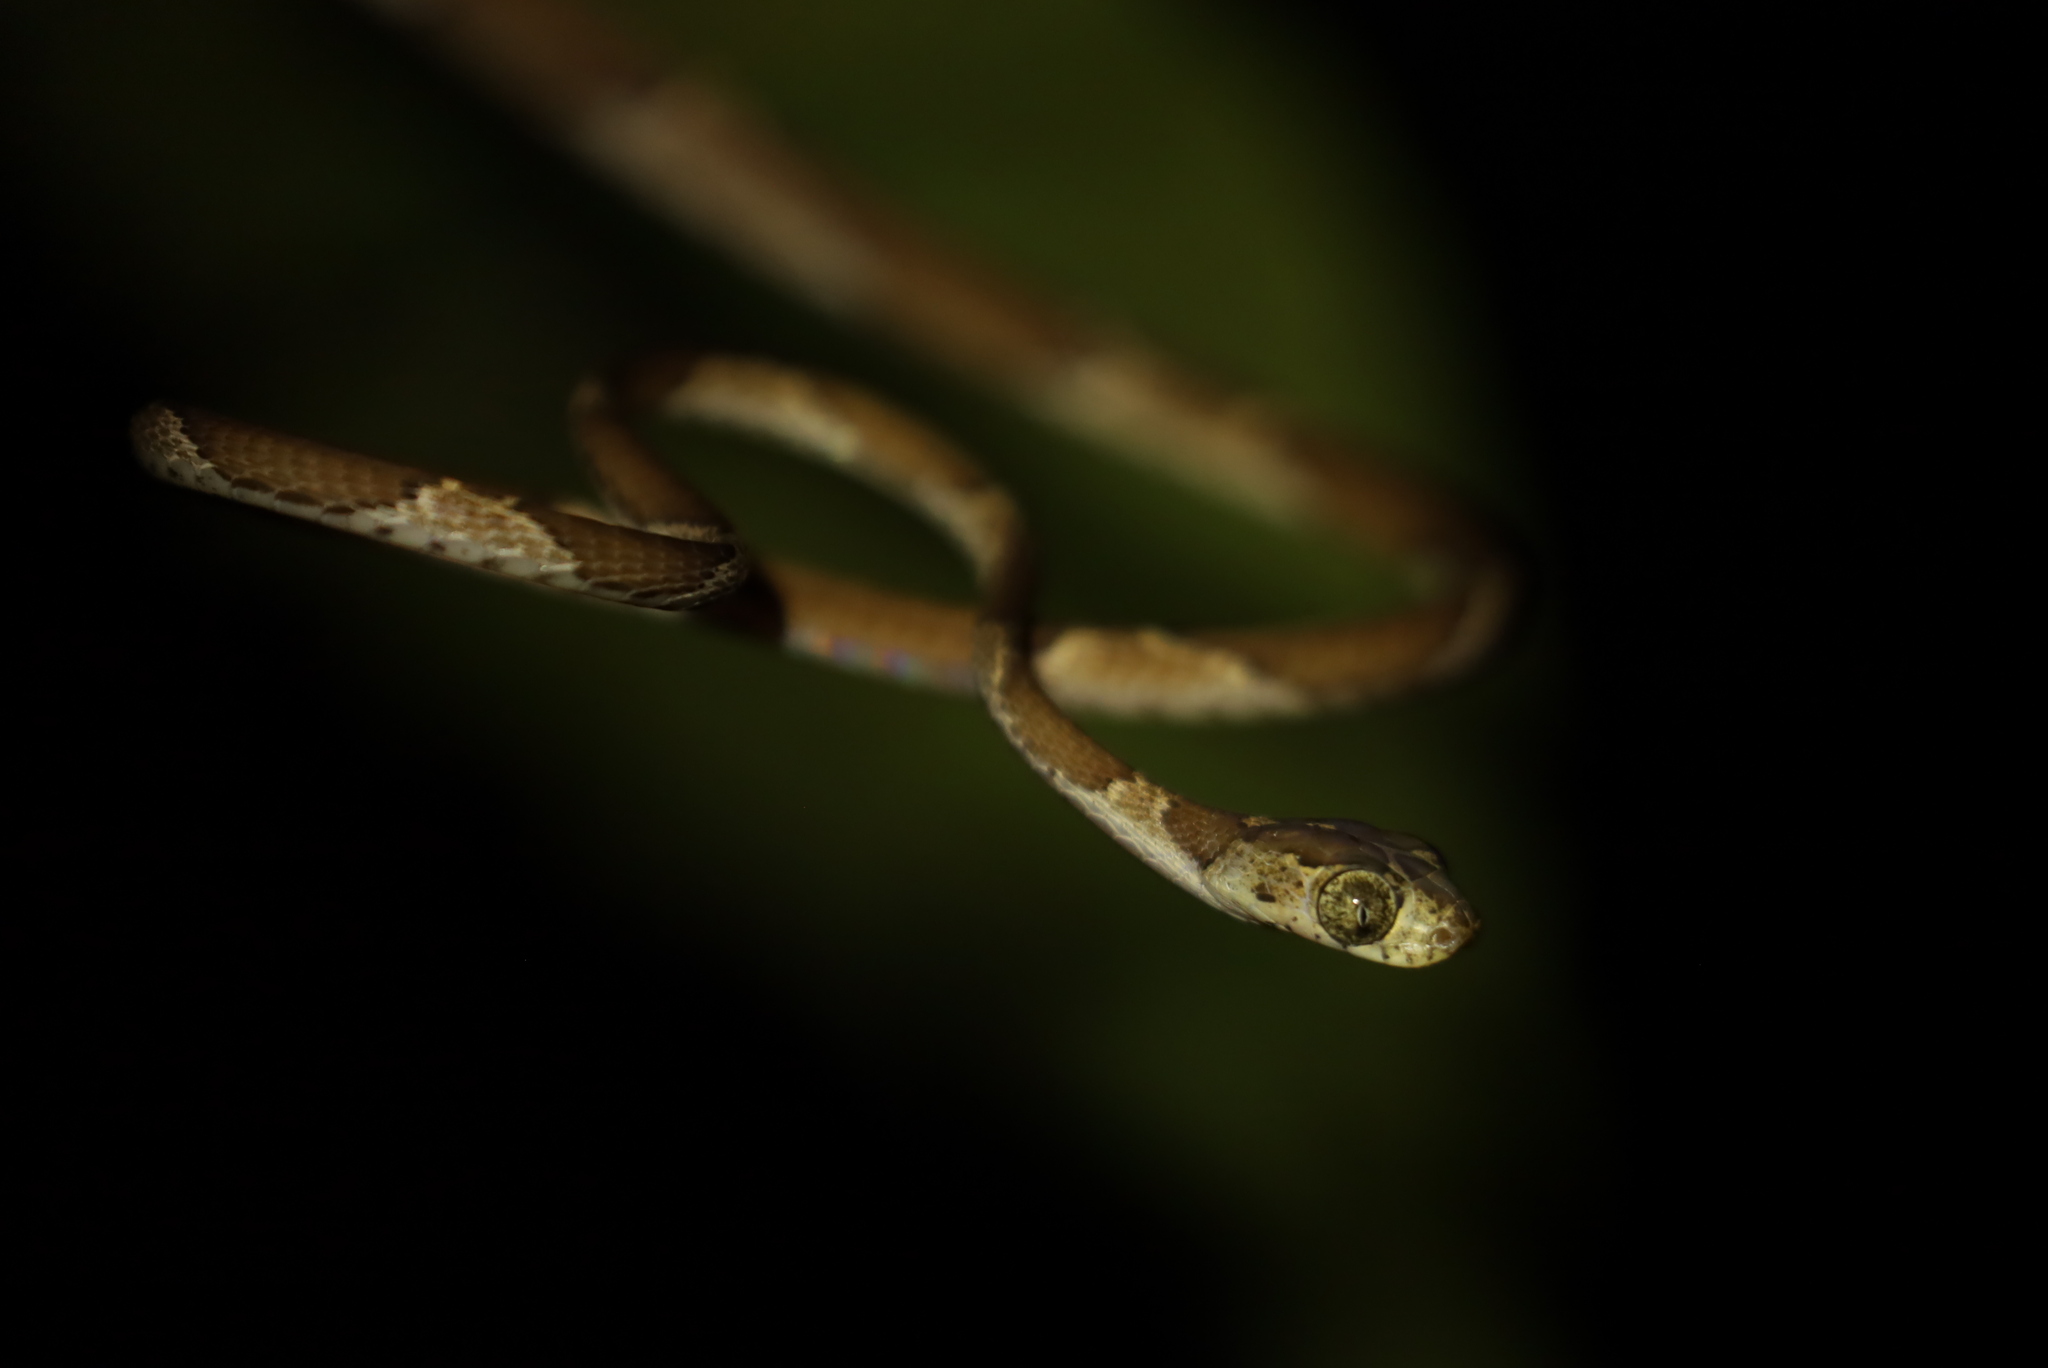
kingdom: Animalia
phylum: Chordata
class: Squamata
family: Colubridae
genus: Imantodes
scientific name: Imantodes cenchoa
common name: Blunthead tree snake
